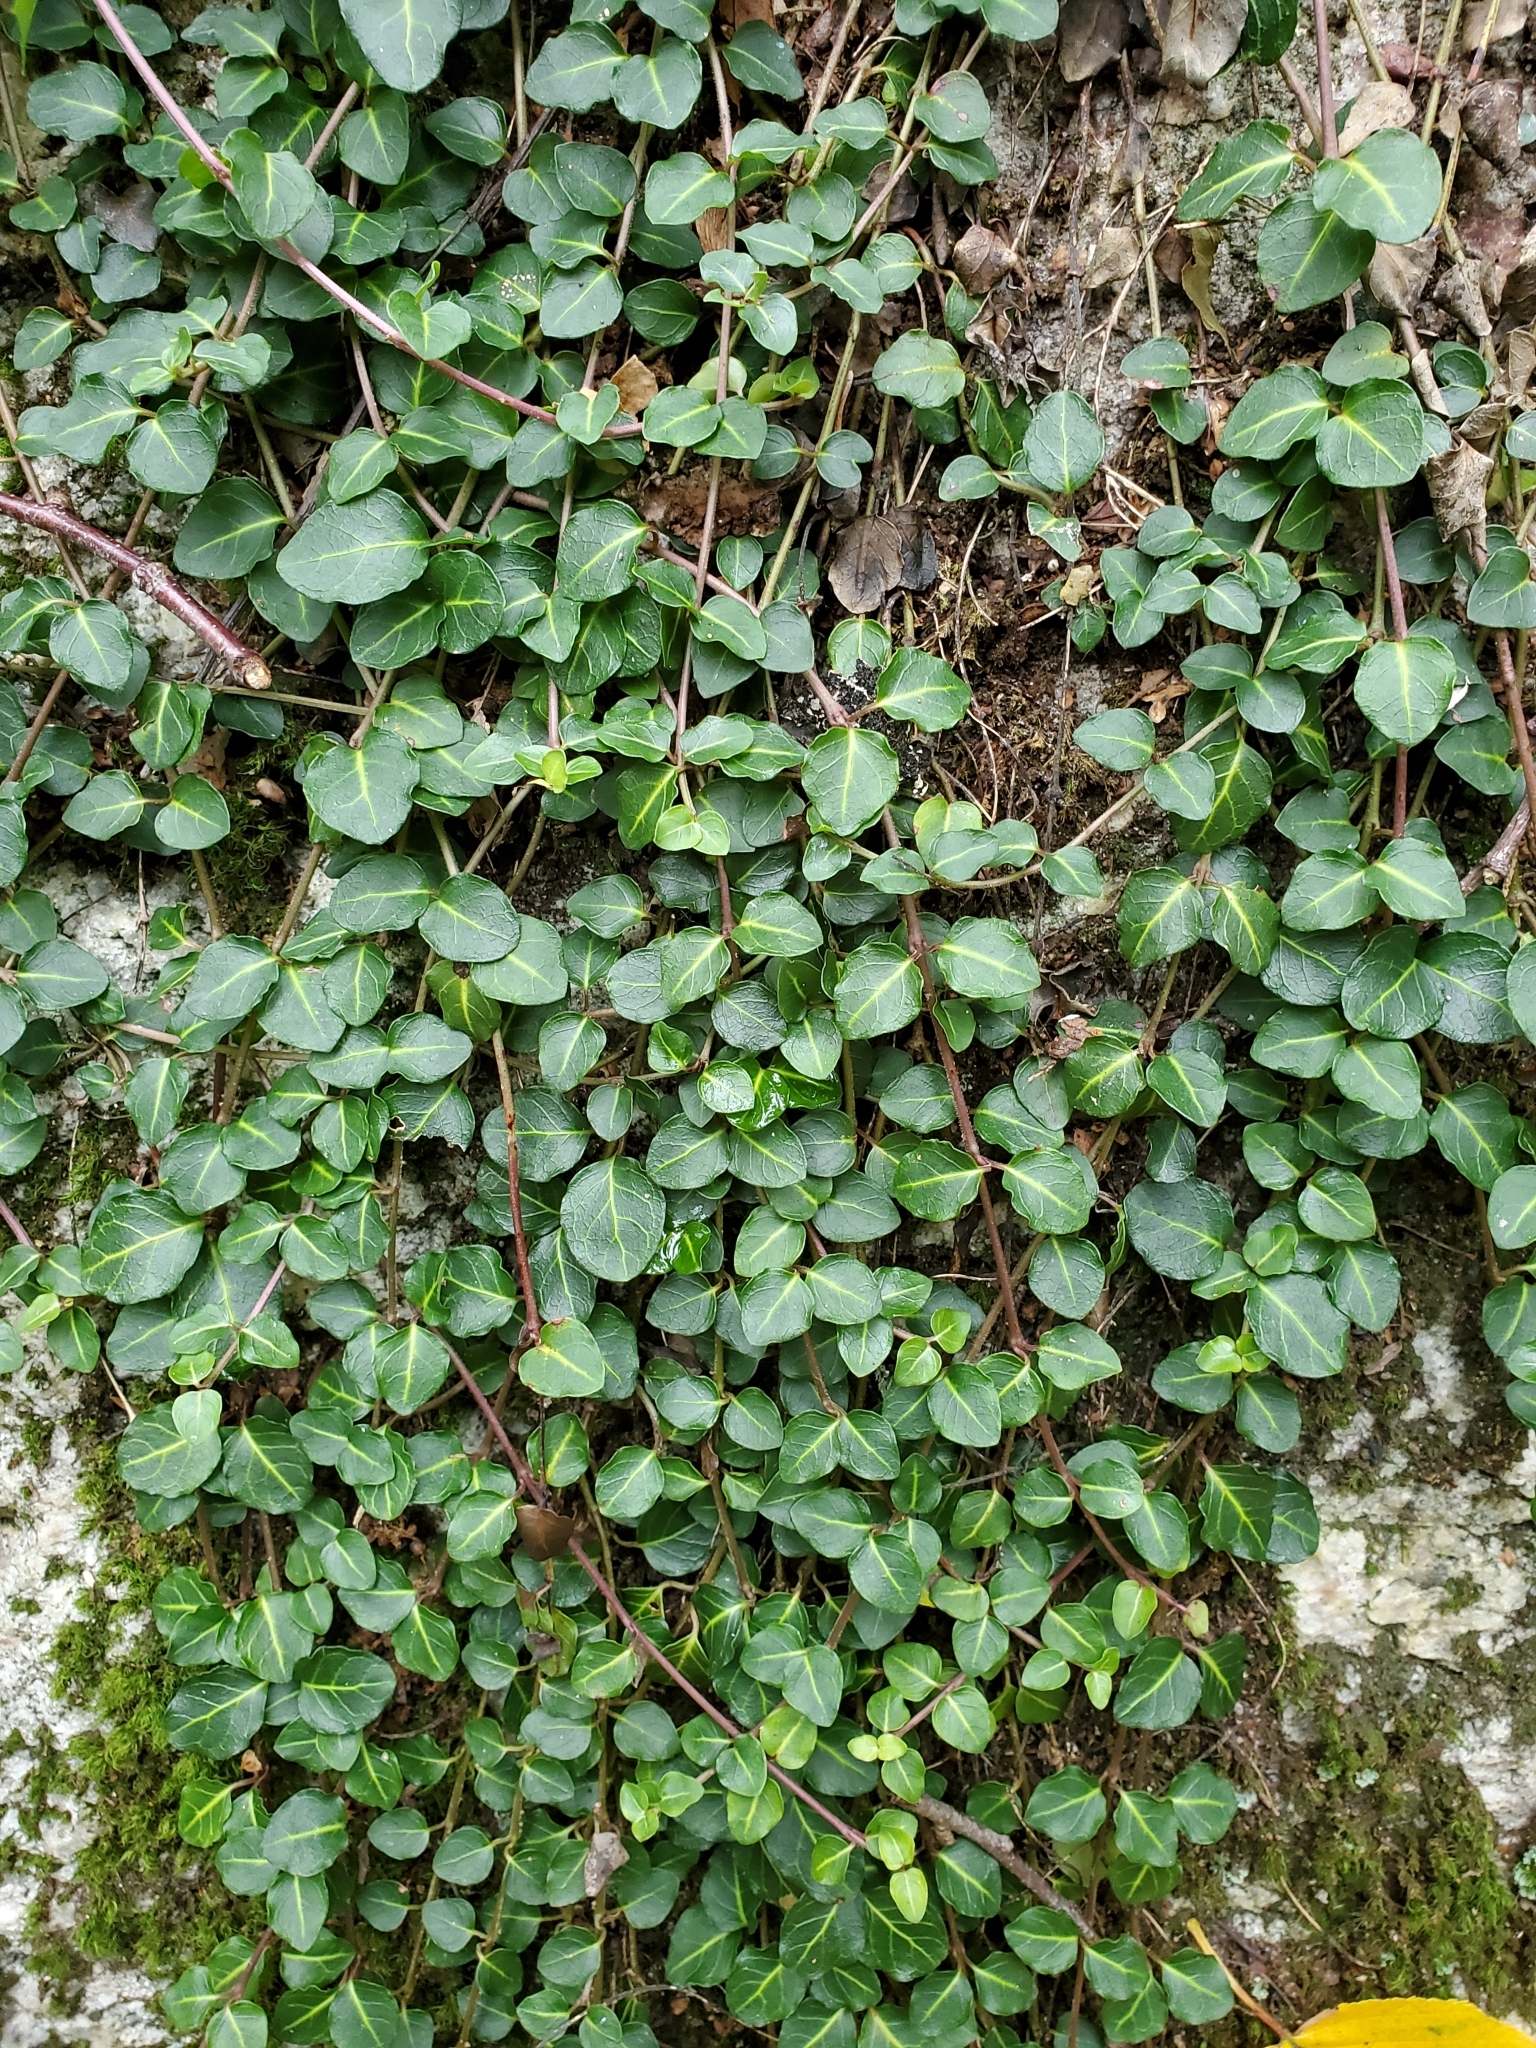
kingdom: Plantae
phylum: Tracheophyta
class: Magnoliopsida
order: Gentianales
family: Rubiaceae
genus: Mitchella
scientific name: Mitchella repens
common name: Partridge-berry
